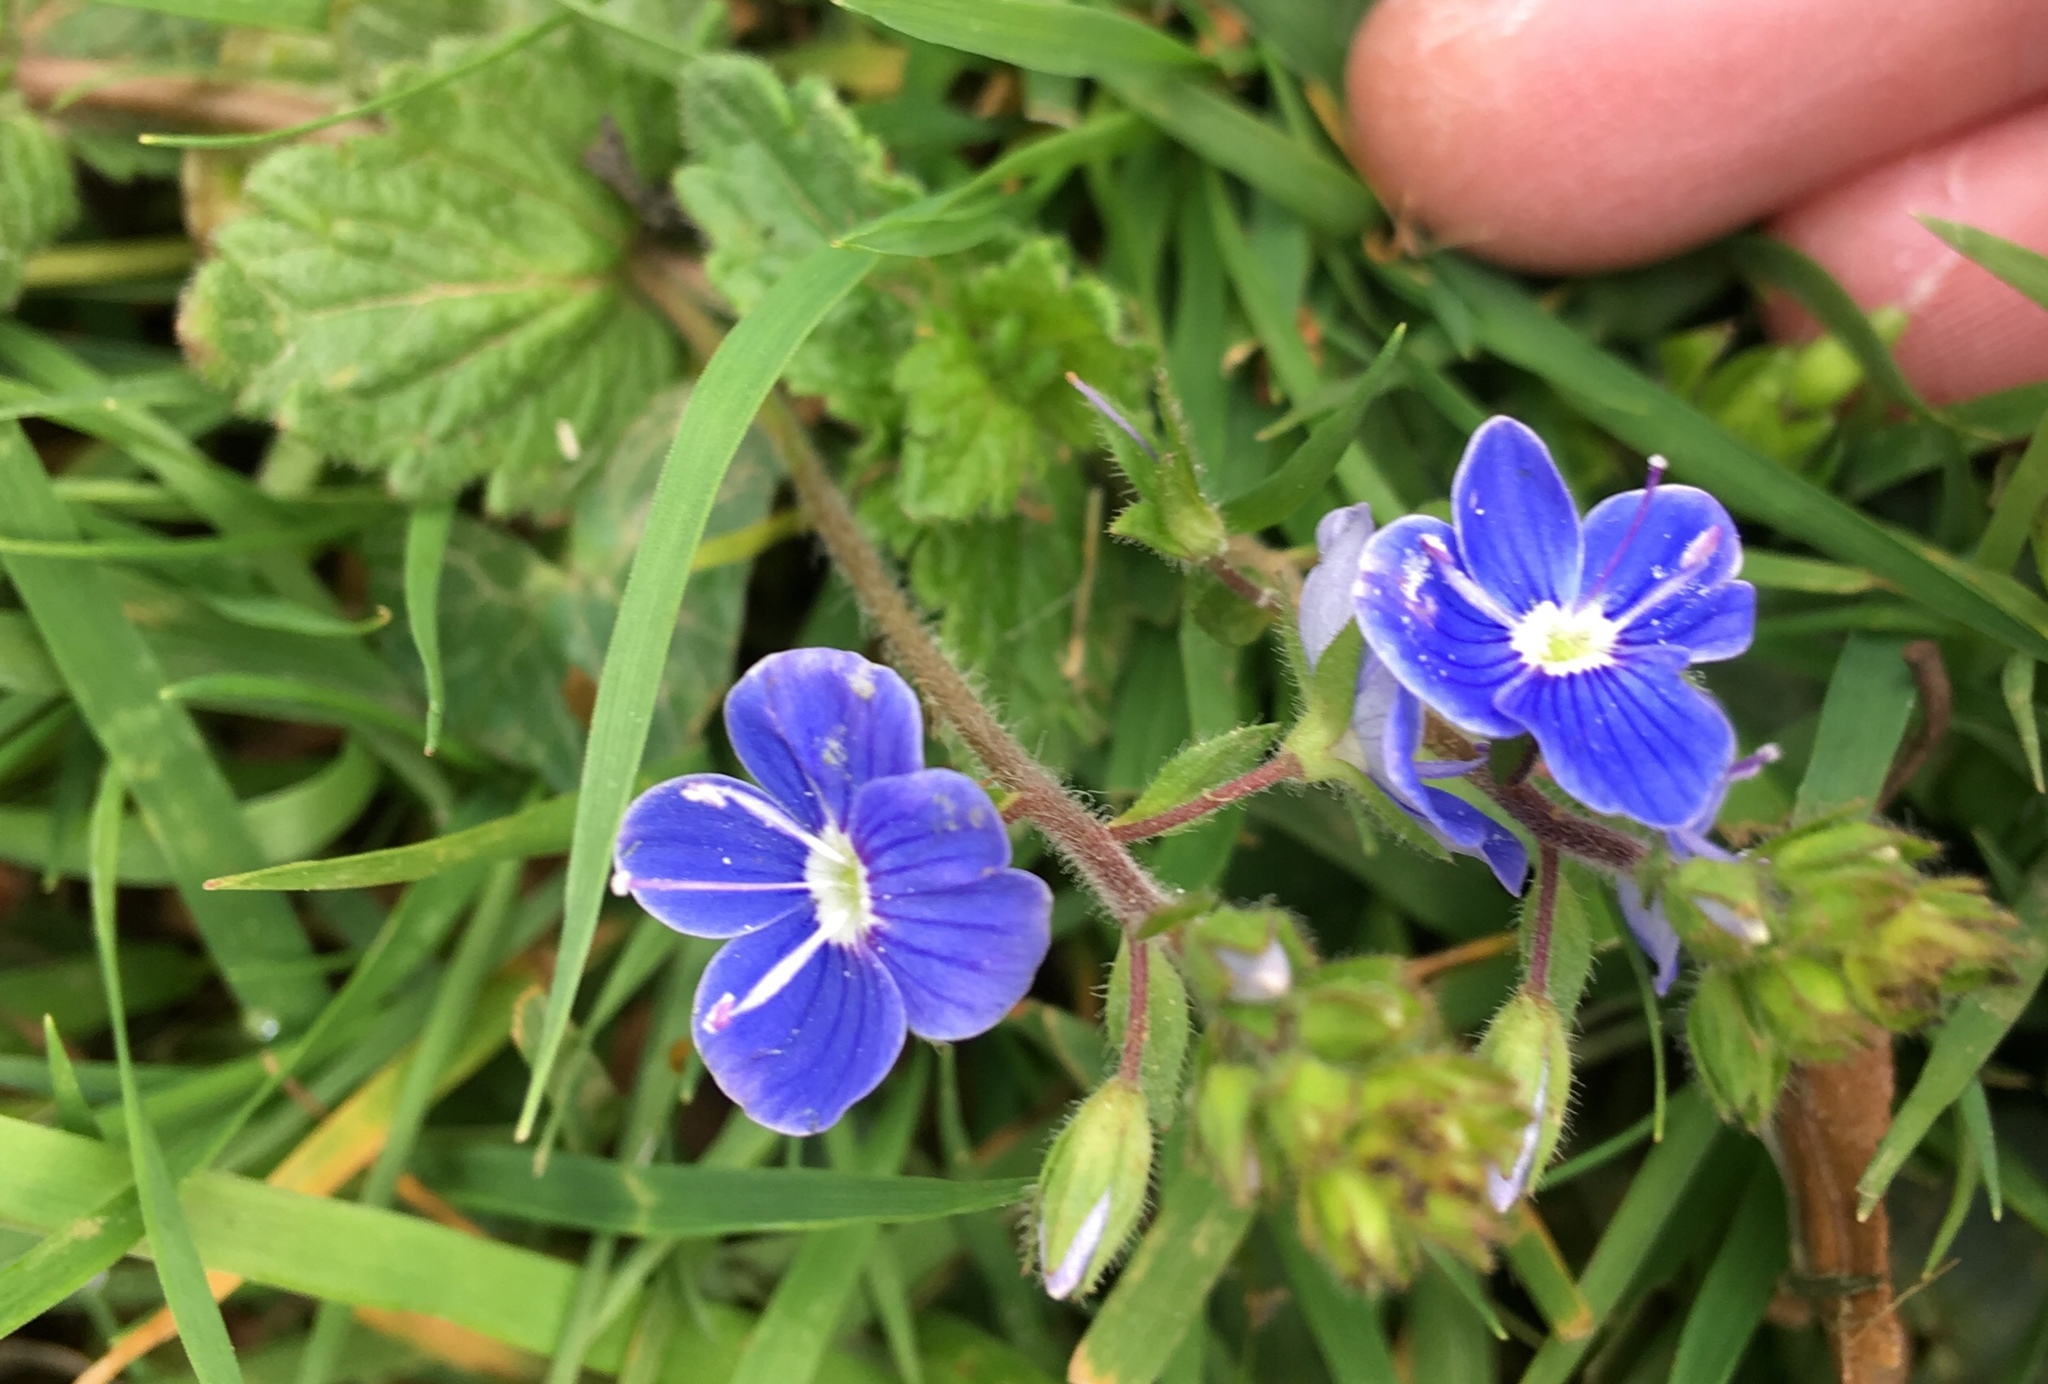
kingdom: Plantae
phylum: Tracheophyta
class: Magnoliopsida
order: Lamiales
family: Plantaginaceae
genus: Veronica
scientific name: Veronica chamaedrys
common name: Germander speedwell
